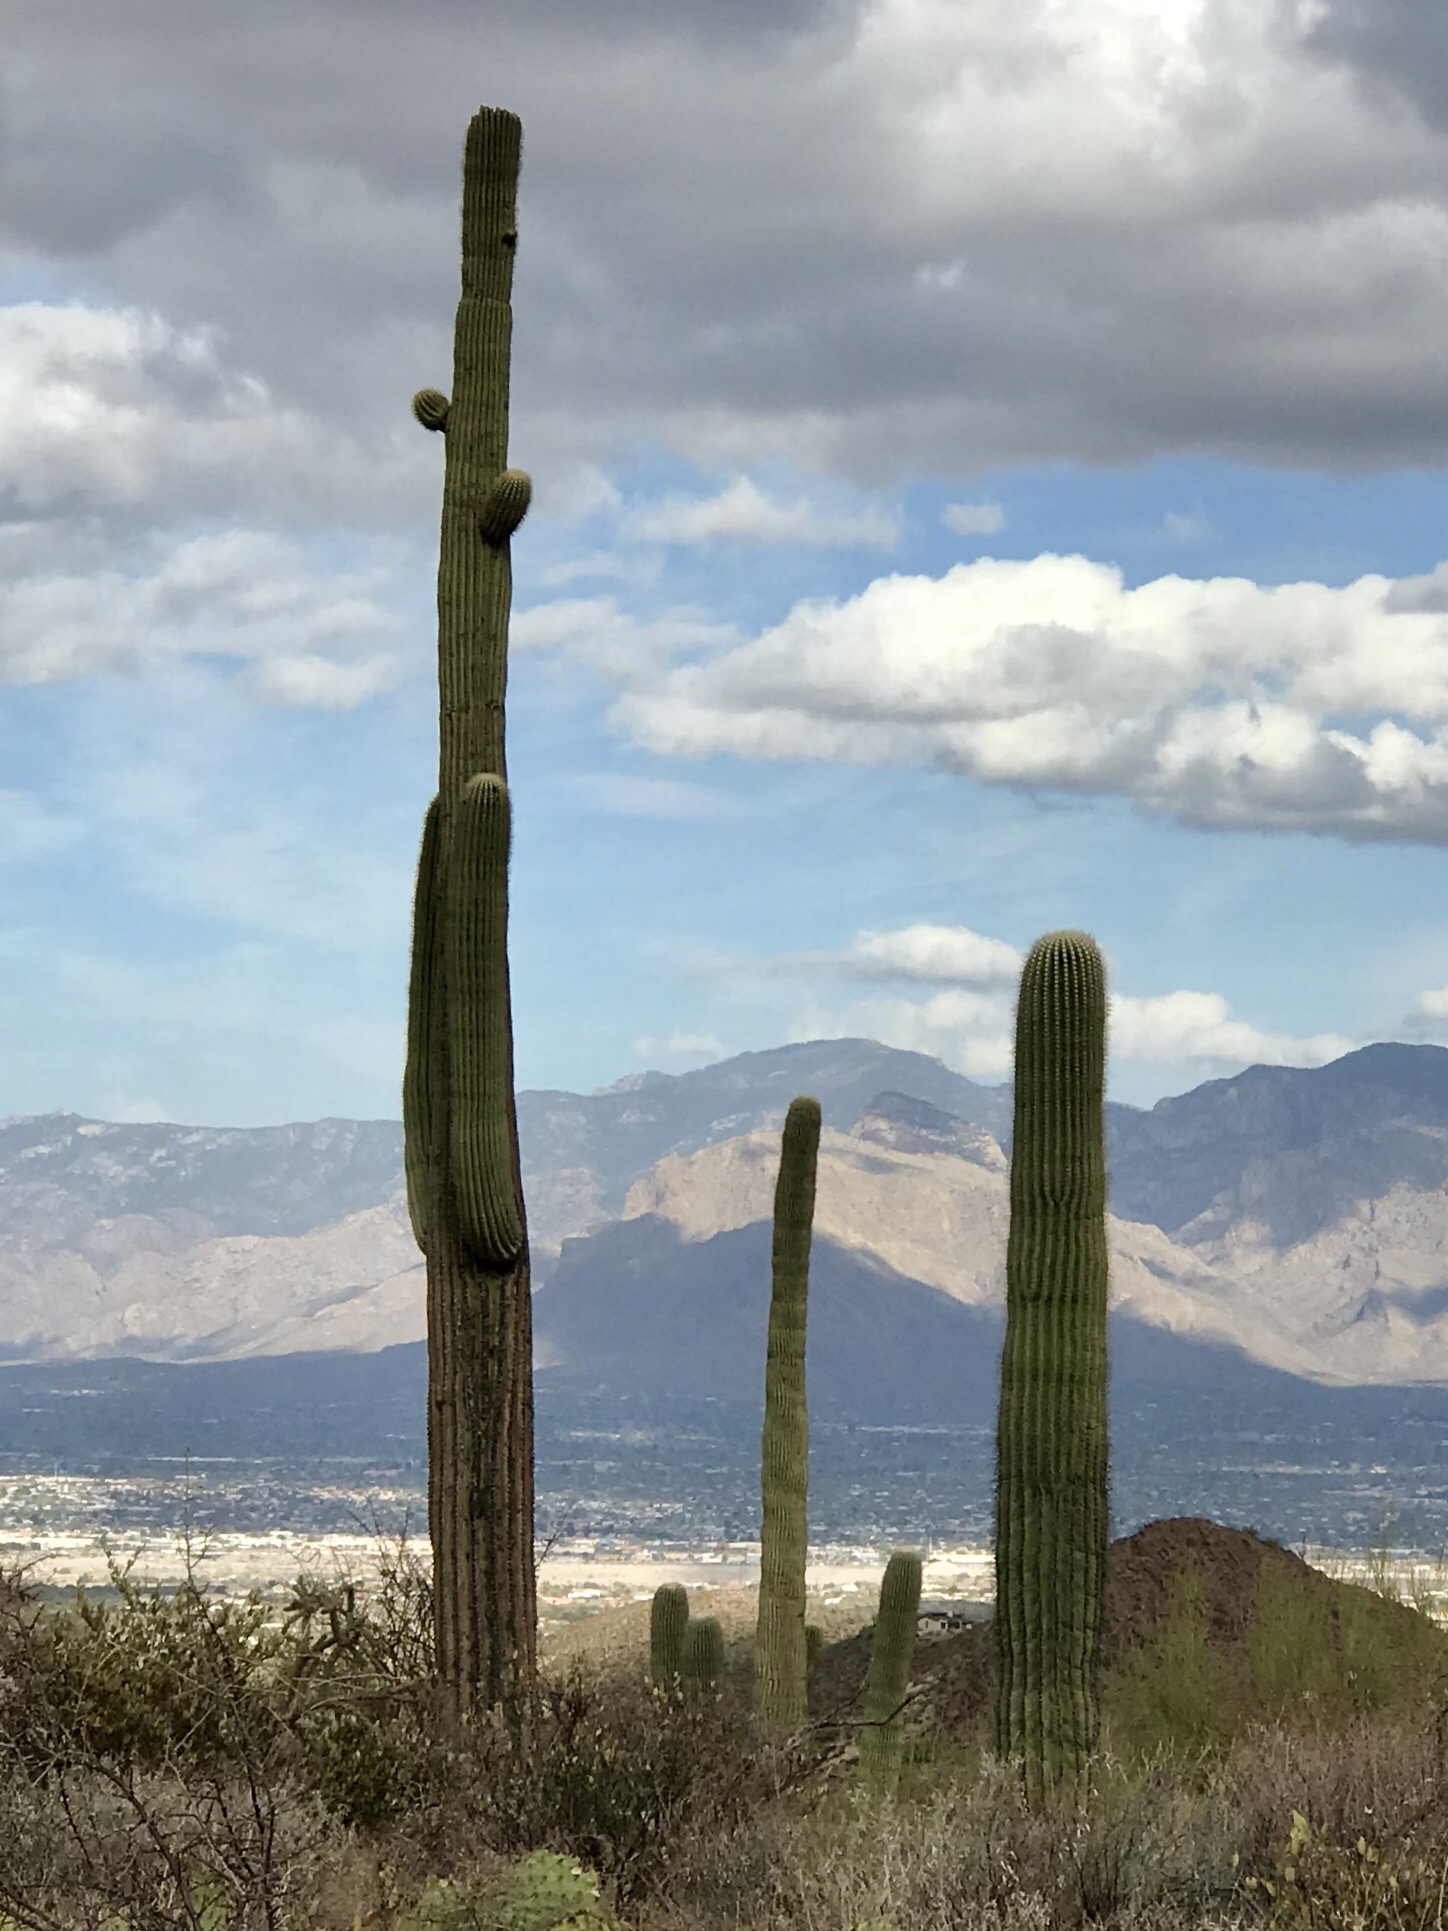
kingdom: Plantae
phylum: Tracheophyta
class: Magnoliopsida
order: Caryophyllales
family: Cactaceae
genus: Carnegiea
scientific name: Carnegiea gigantea
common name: Saguaro
